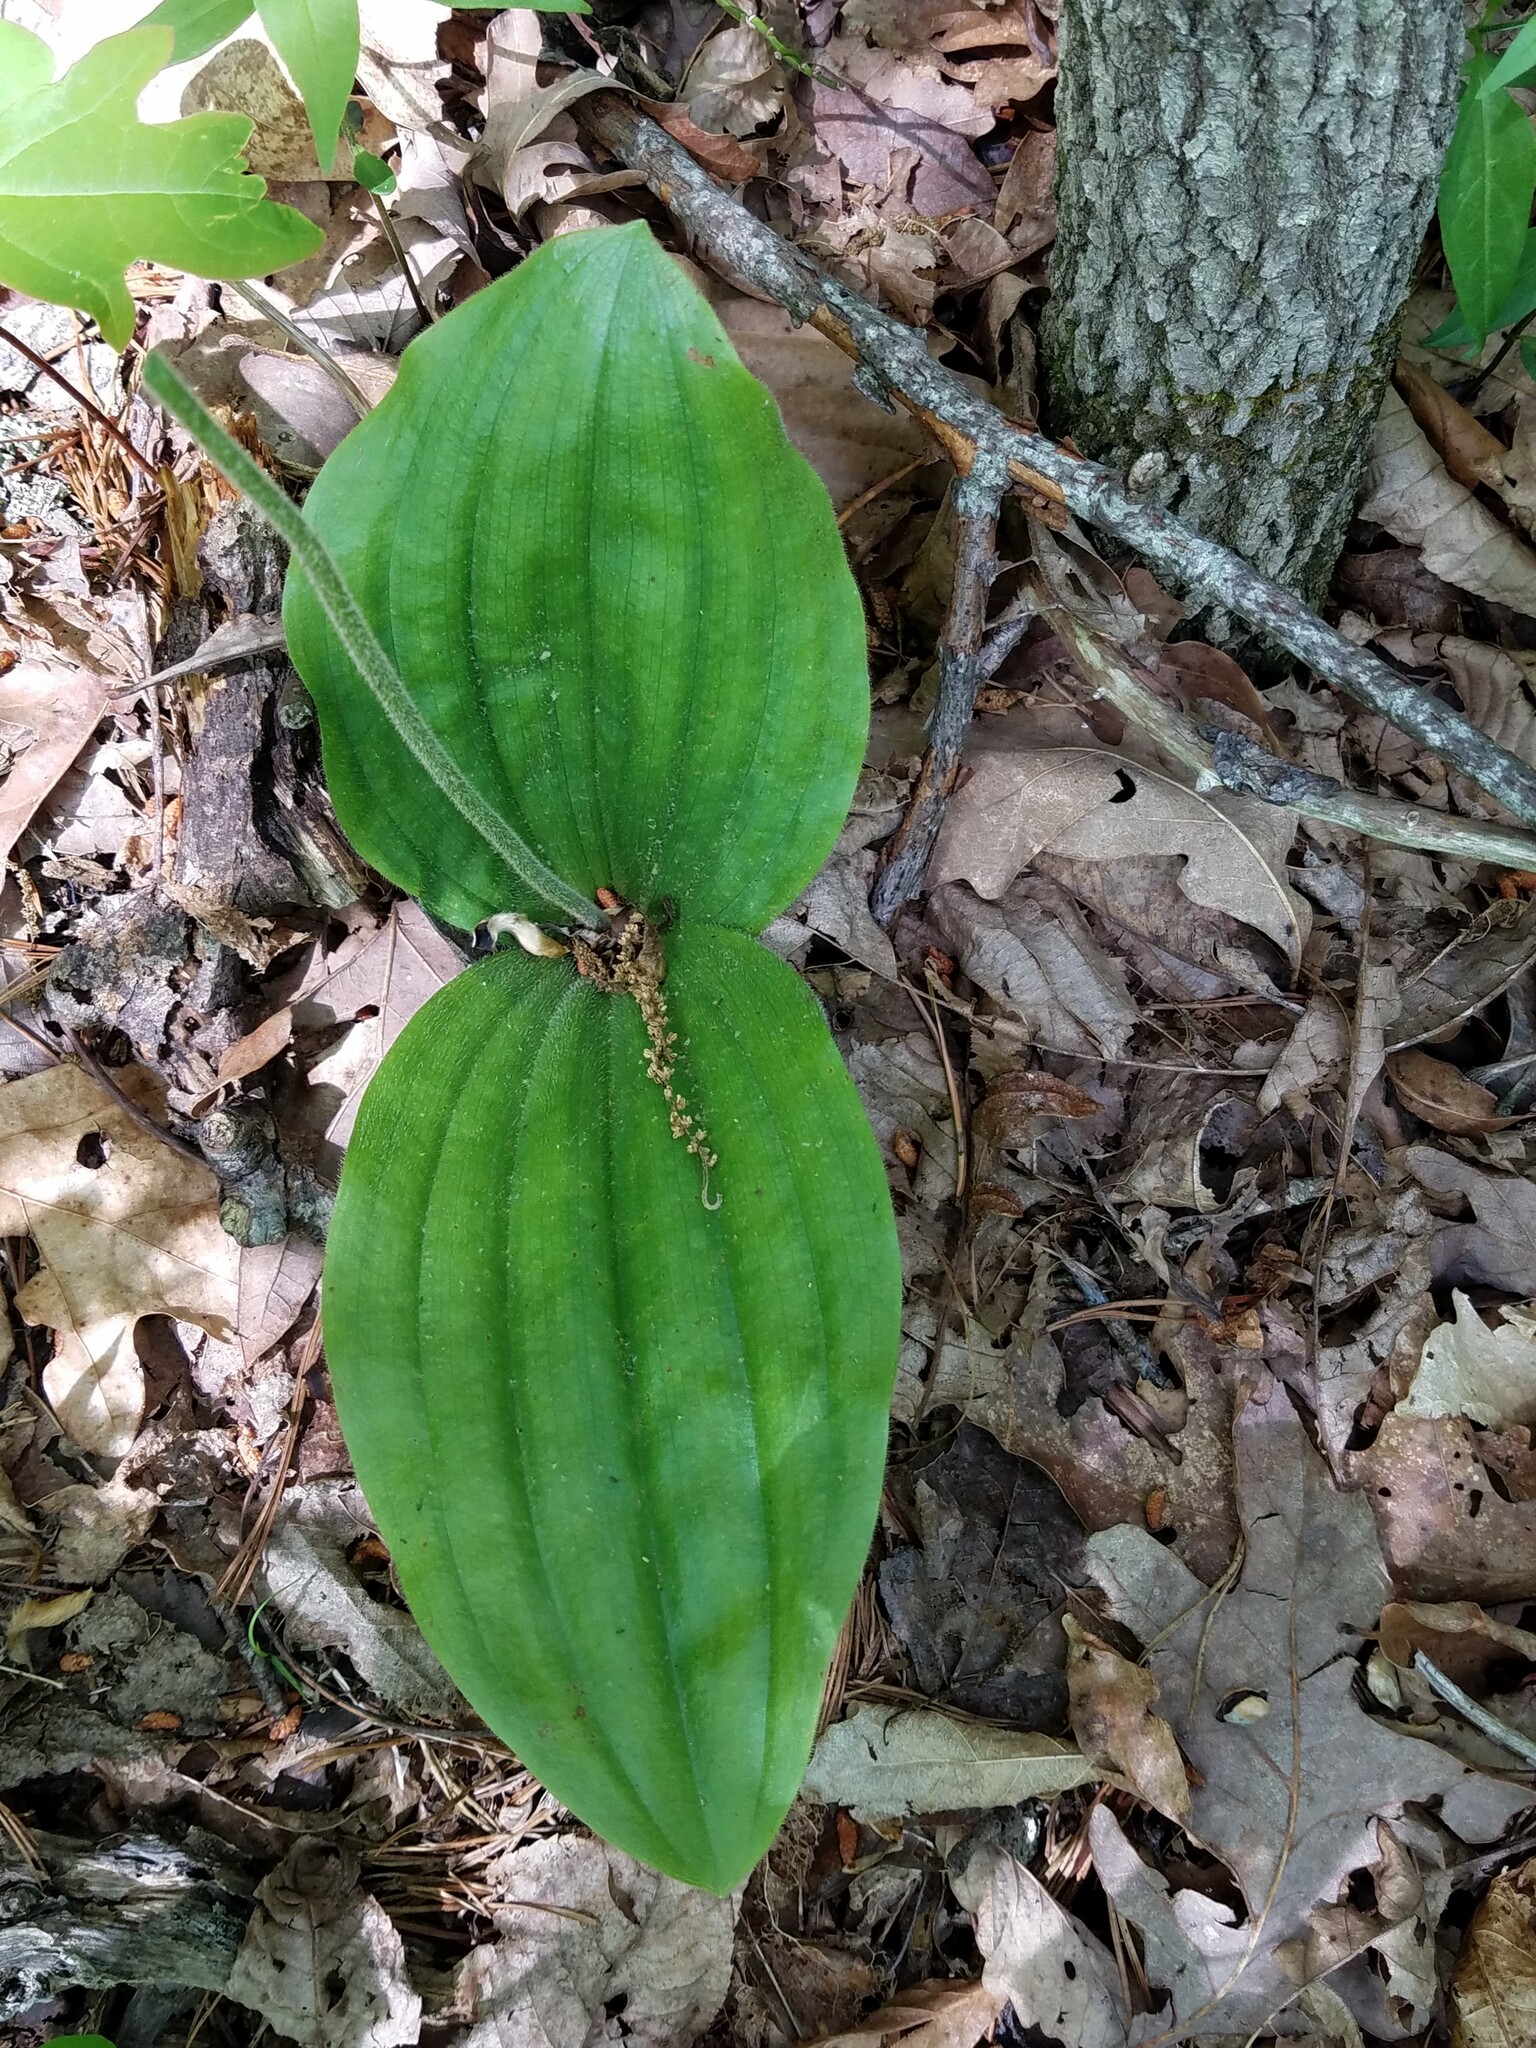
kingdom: Plantae
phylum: Tracheophyta
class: Liliopsida
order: Asparagales
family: Orchidaceae
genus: Cypripedium
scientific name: Cypripedium acaule
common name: Pink lady's-slipper
